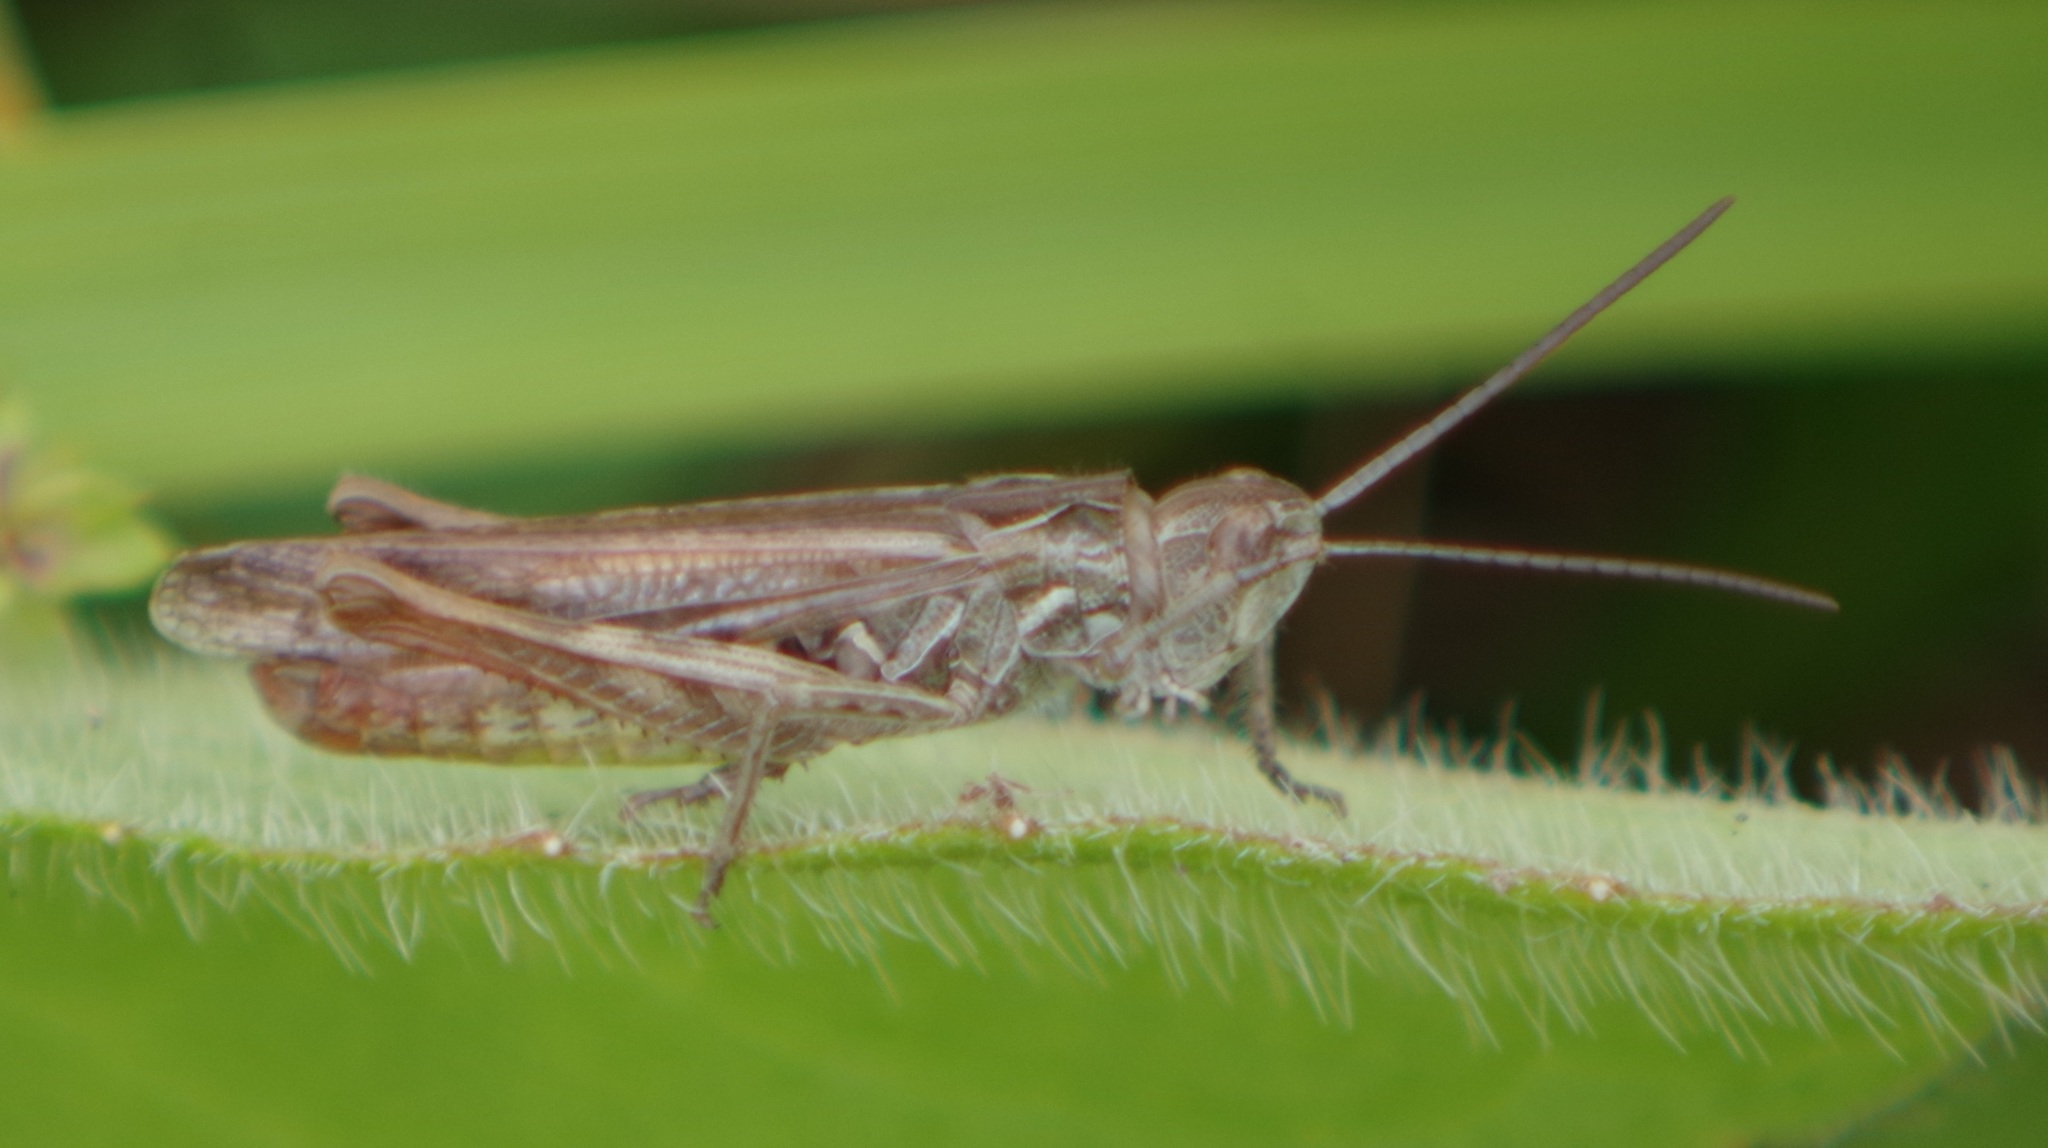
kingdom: Animalia
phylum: Arthropoda
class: Insecta
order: Orthoptera
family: Acrididae
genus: Chorthippus
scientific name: Chorthippus biguttulus
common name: Bow-winged grasshopper
